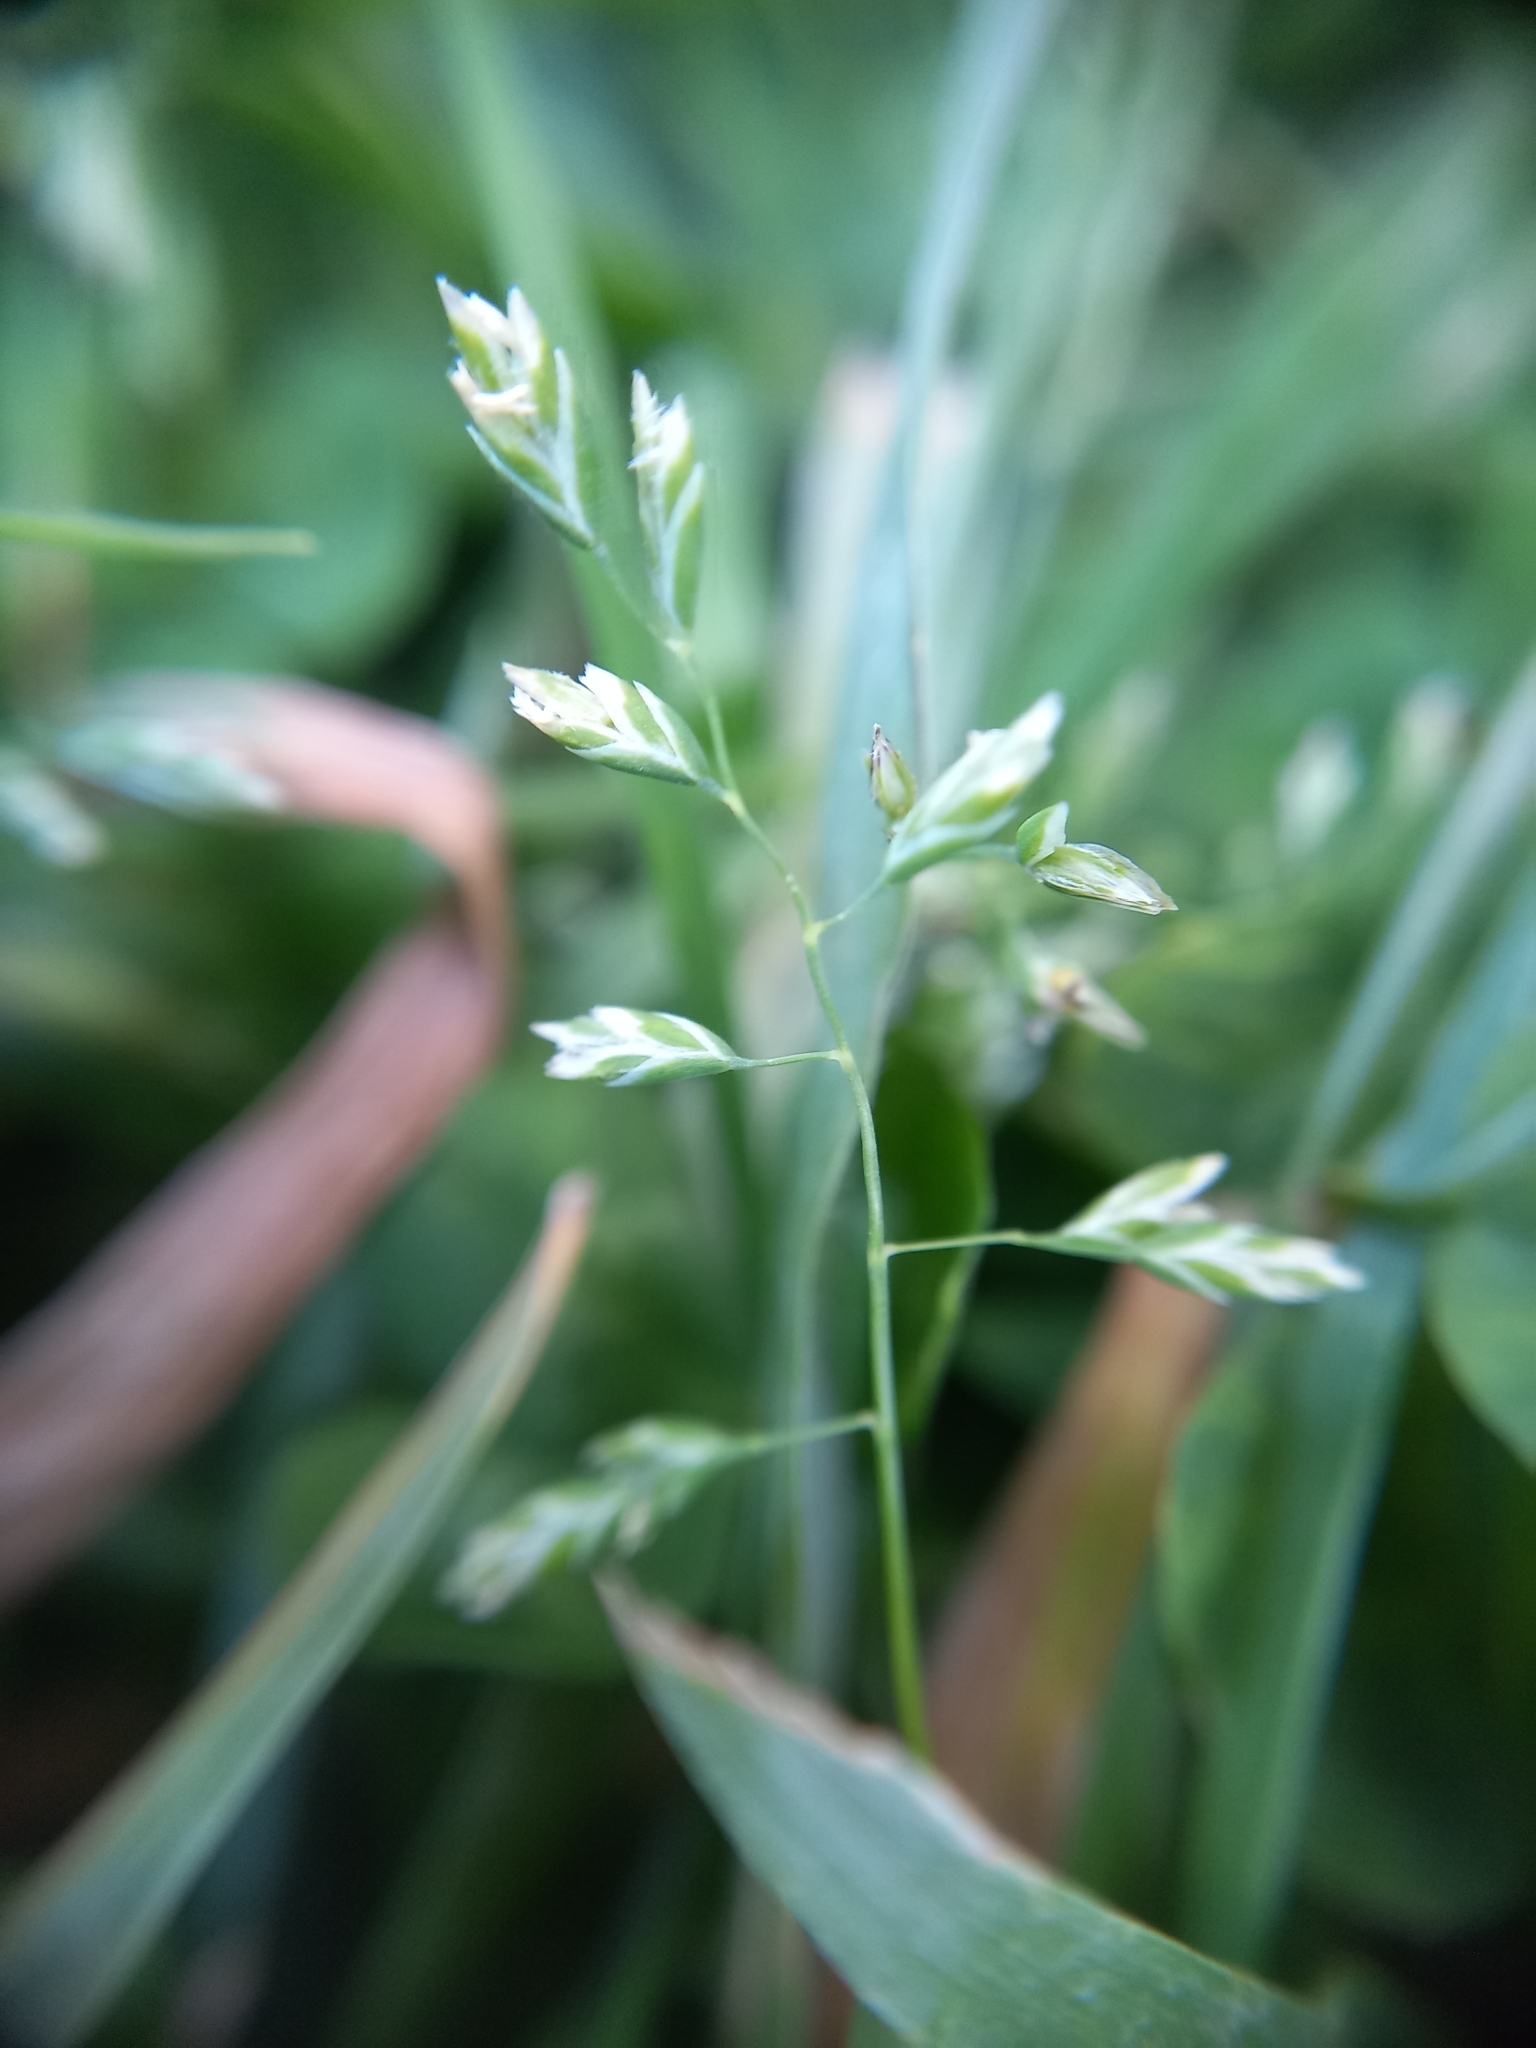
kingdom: Plantae
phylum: Tracheophyta
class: Liliopsida
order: Poales
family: Poaceae
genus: Poa
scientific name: Poa annua
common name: Annual bluegrass
